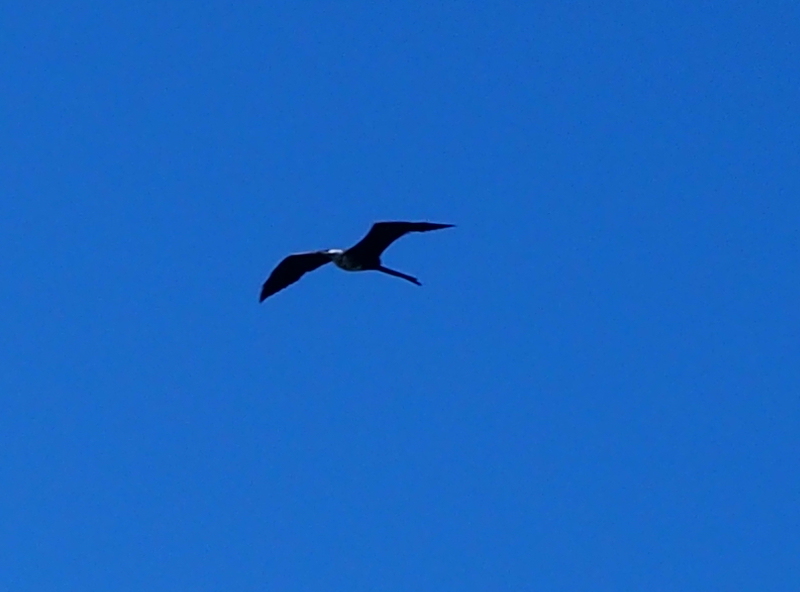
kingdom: Animalia
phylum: Chordata
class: Aves
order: Suliformes
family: Fregatidae
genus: Fregata
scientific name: Fregata magnificens
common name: Magnificent frigatebird
